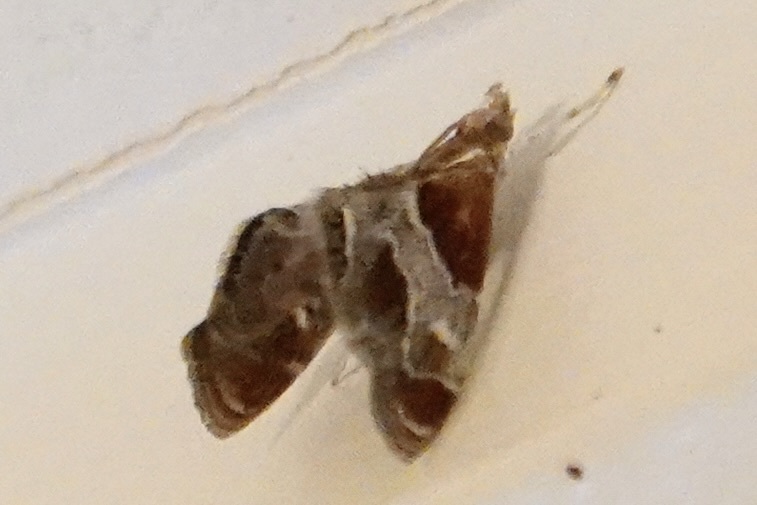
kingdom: Animalia
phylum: Arthropoda
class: Insecta
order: Lepidoptera
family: Crambidae
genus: Chalcoela
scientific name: Chalcoela pegasalis
